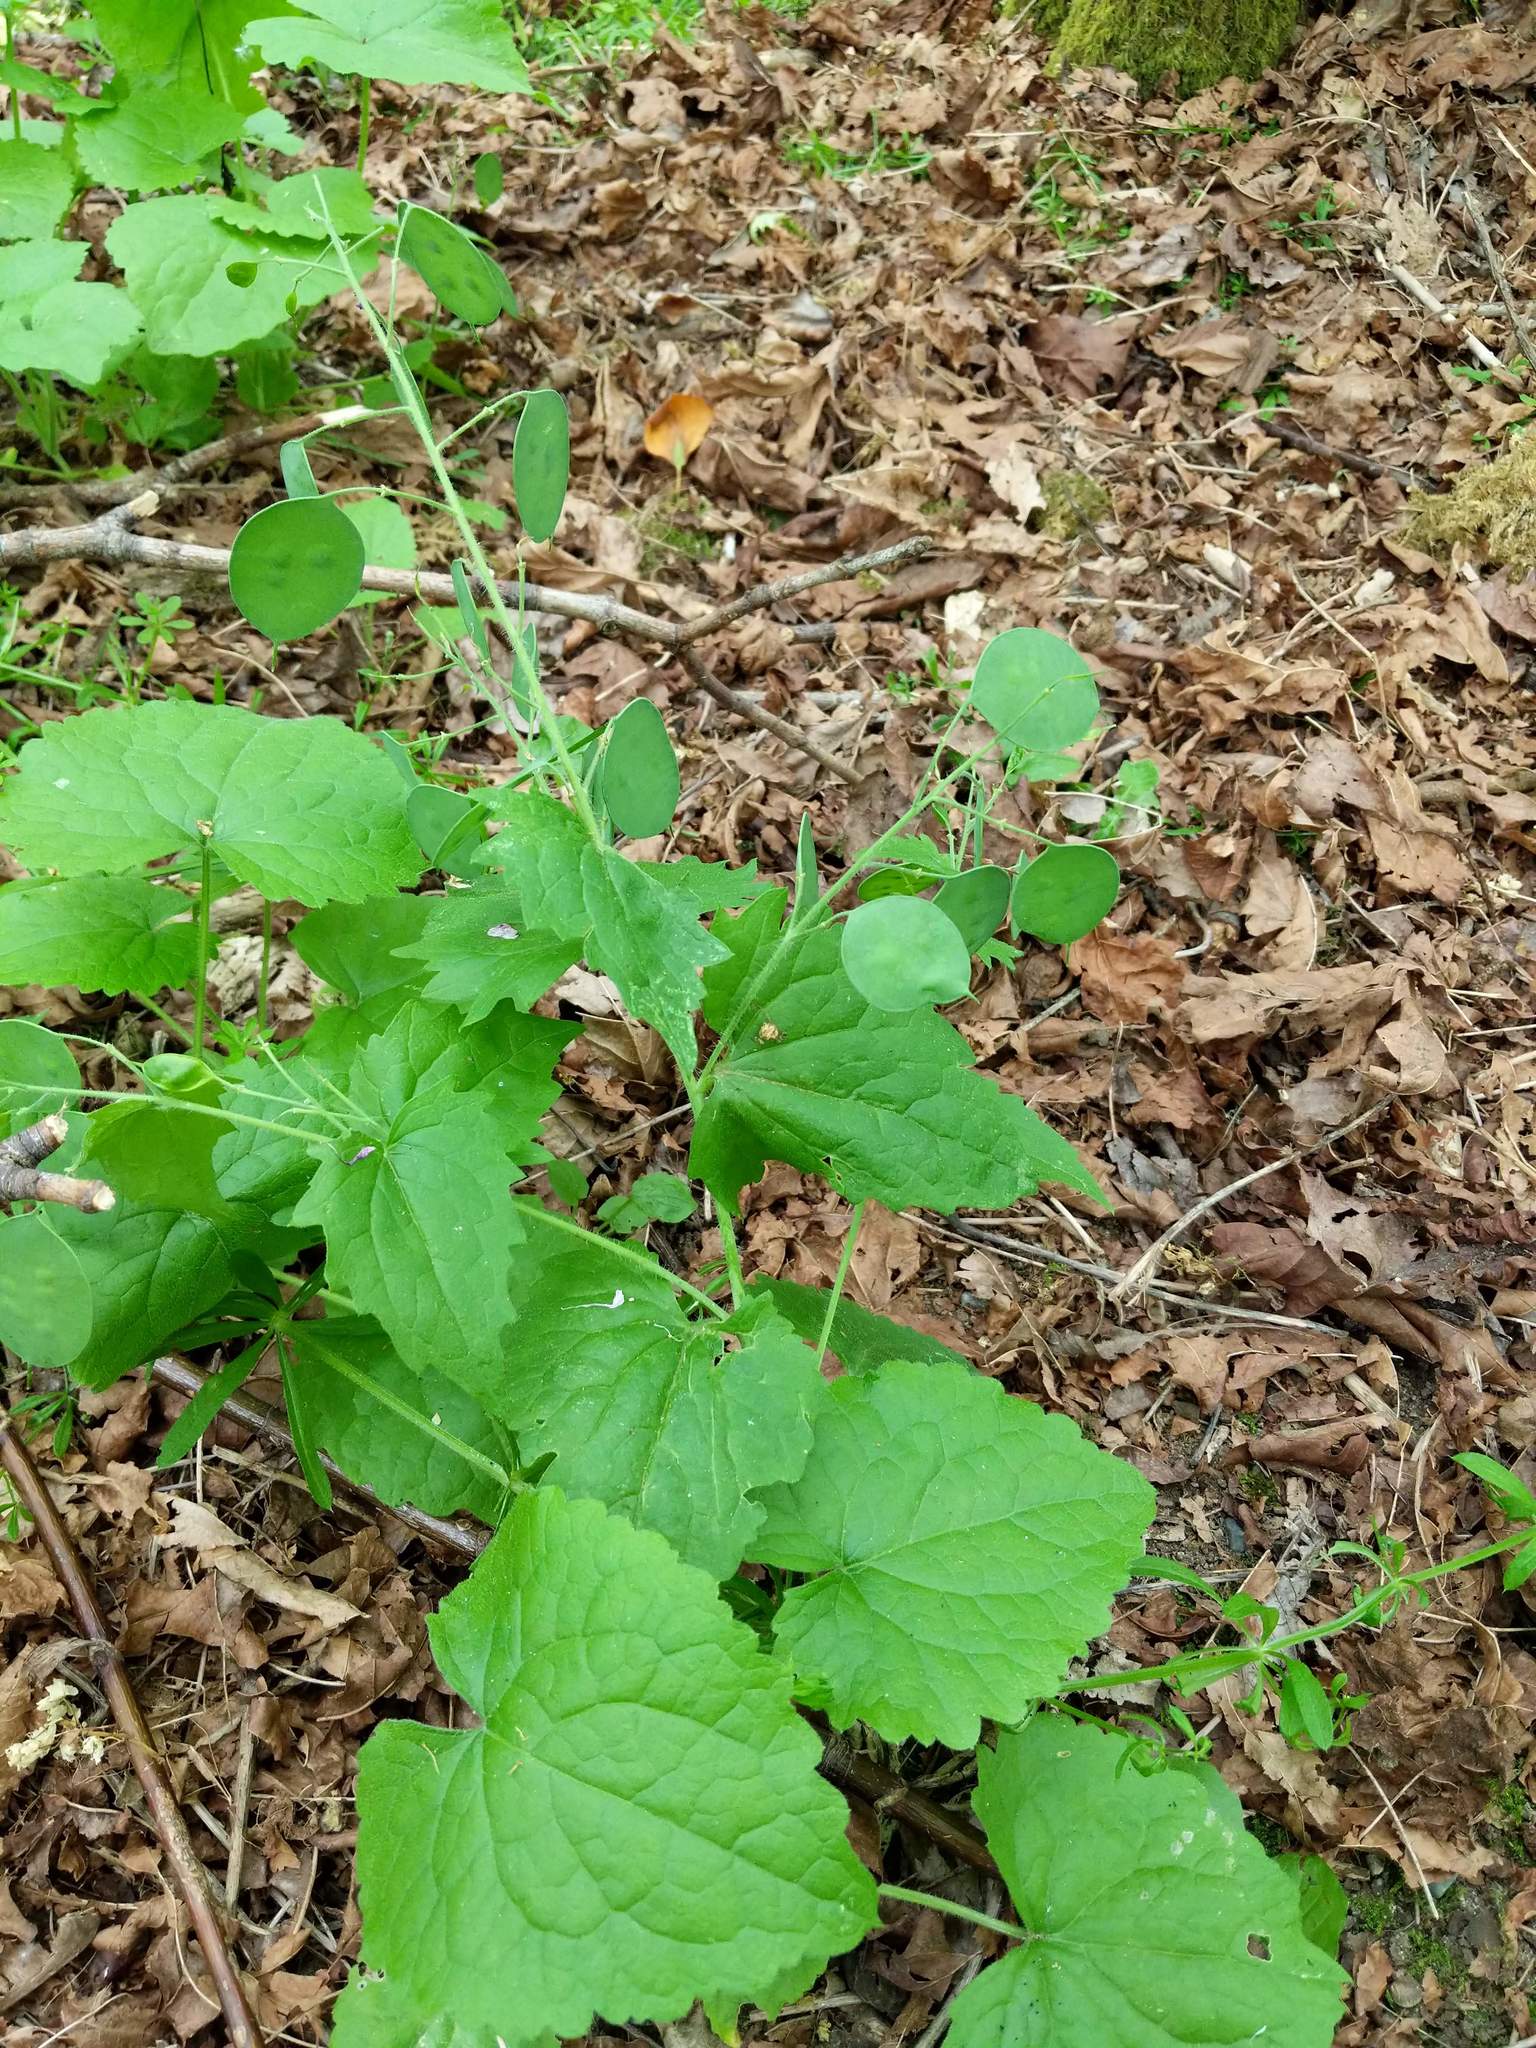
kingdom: Plantae
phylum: Tracheophyta
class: Magnoliopsida
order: Brassicales
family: Brassicaceae
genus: Lunaria
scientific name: Lunaria annua
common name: Honesty
